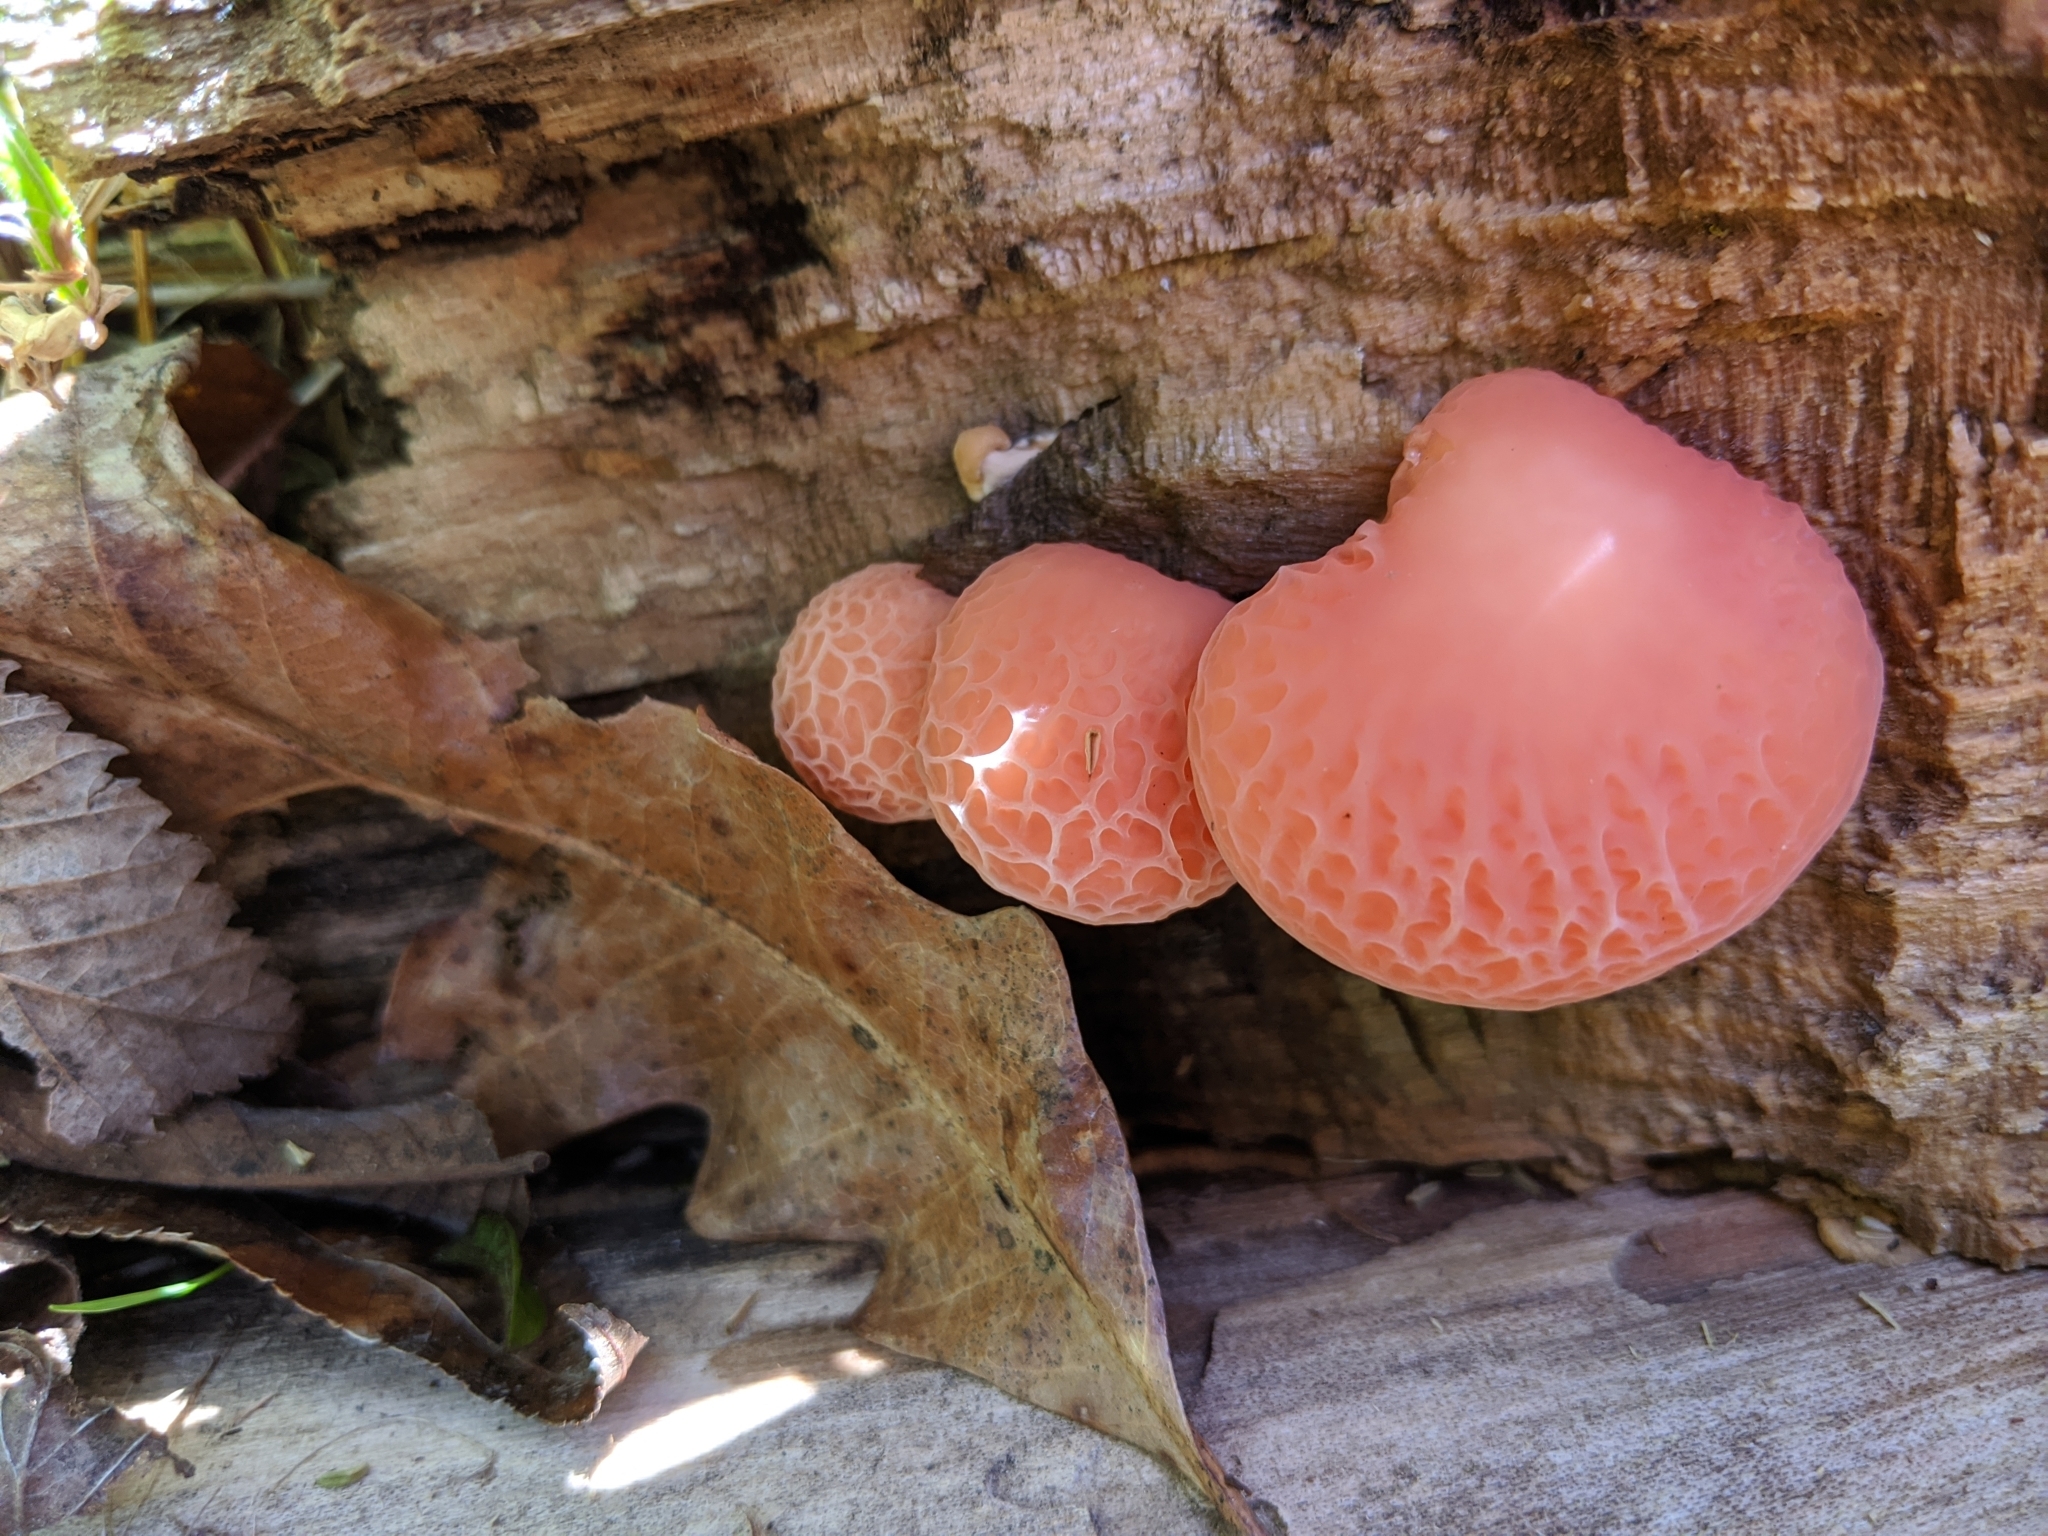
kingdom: Fungi
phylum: Basidiomycota
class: Agaricomycetes
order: Agaricales
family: Physalacriaceae
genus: Rhodotus
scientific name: Rhodotus palmatus
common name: Wrinkled peach
